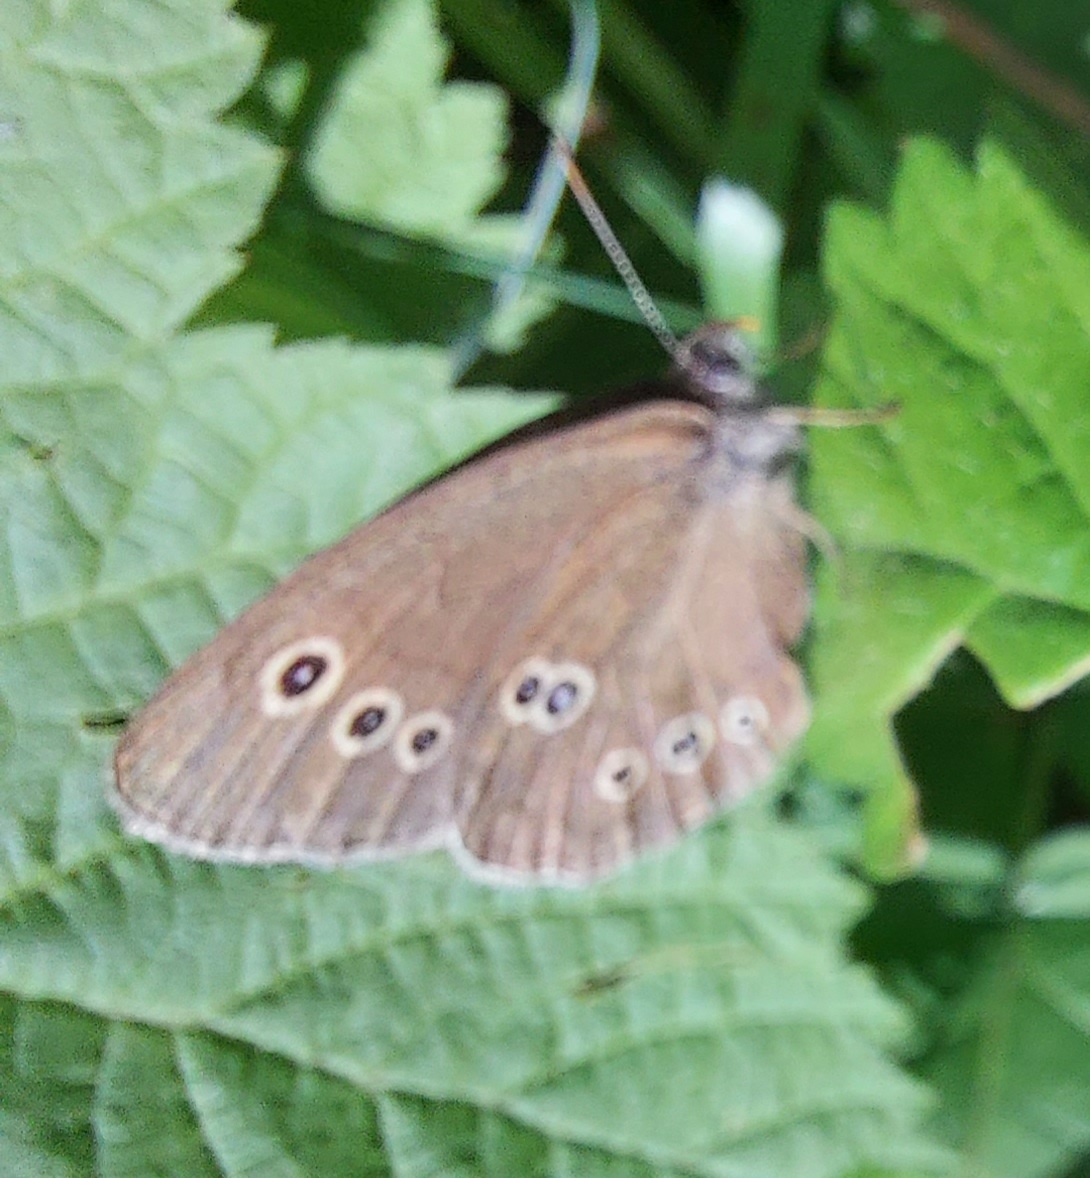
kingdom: Animalia
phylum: Arthropoda
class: Insecta
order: Lepidoptera
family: Nymphalidae
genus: Aphantopus
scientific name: Aphantopus hyperantus
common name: Ringlet
